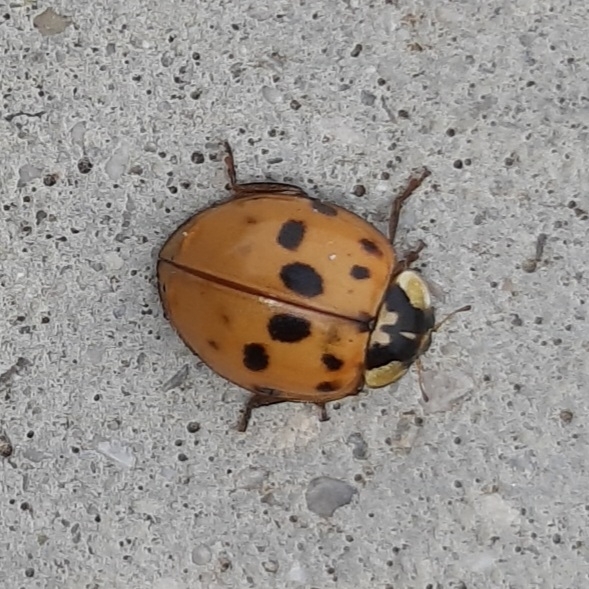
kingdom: Animalia
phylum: Arthropoda
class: Insecta
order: Coleoptera
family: Coccinellidae
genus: Harmonia
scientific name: Harmonia axyridis
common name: Harlequin ladybird
